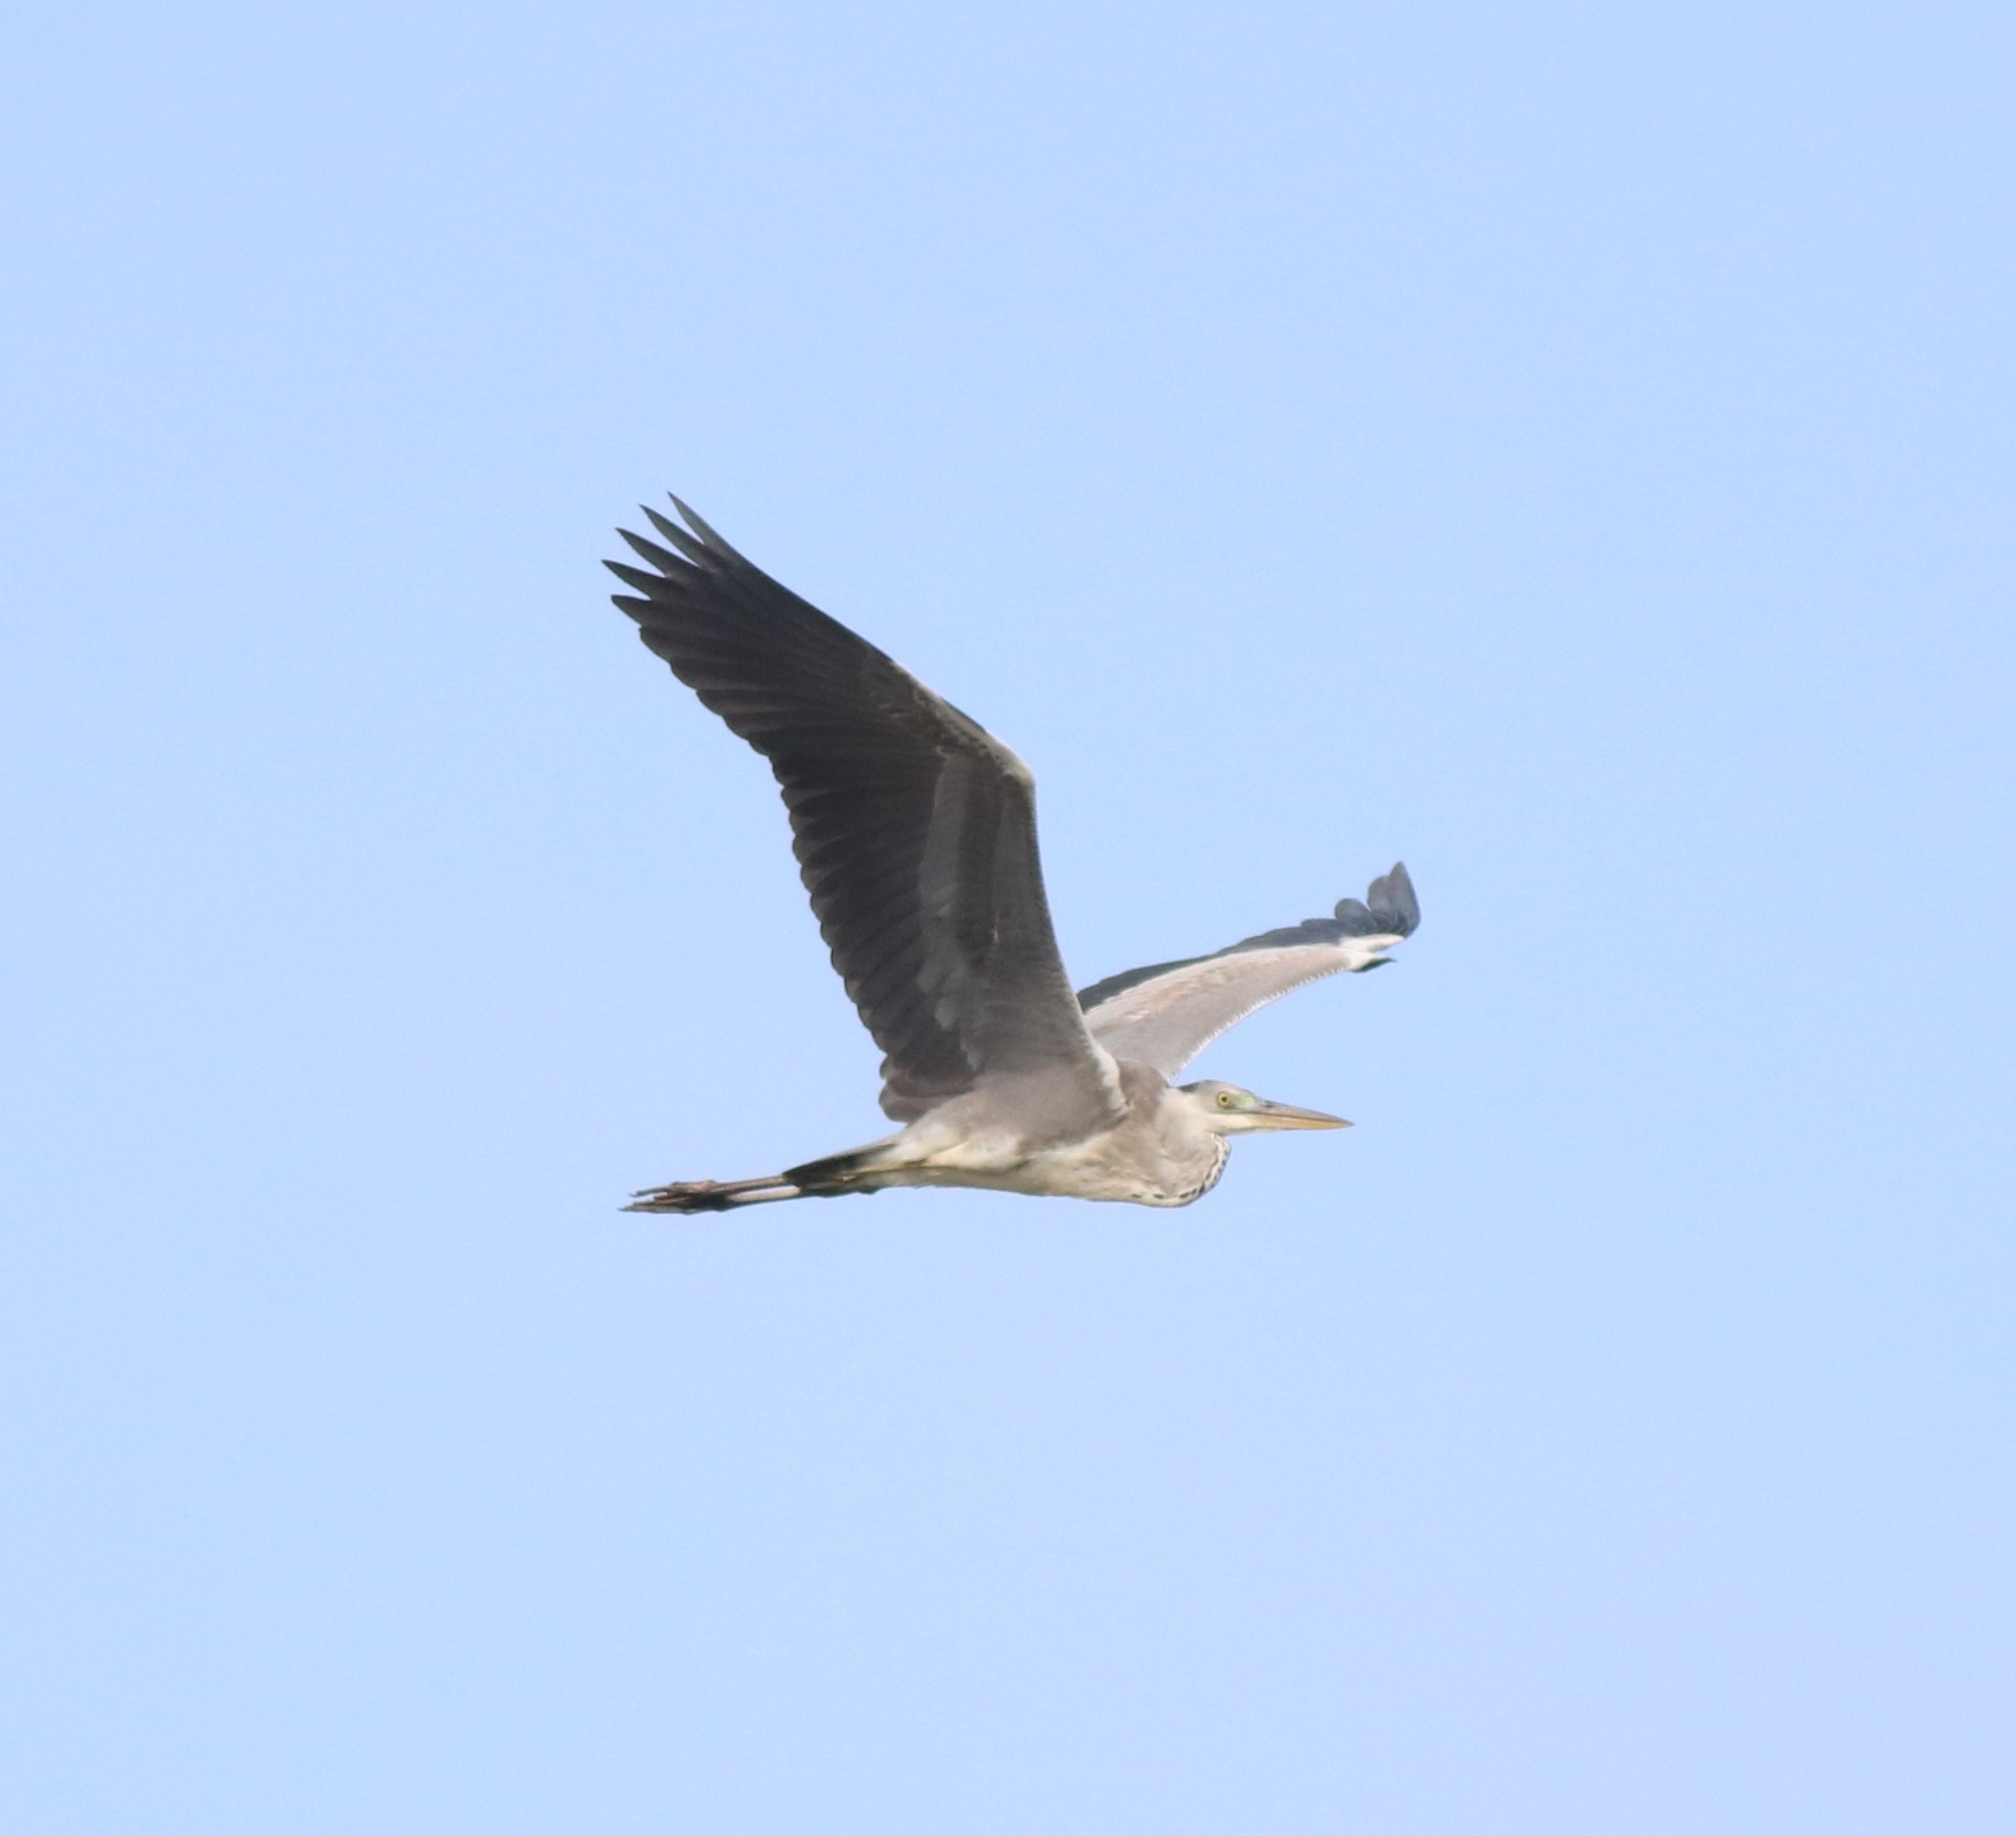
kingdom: Animalia
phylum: Chordata
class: Aves
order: Pelecaniformes
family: Ardeidae
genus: Ardea
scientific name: Ardea cinerea
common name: Grey heron
